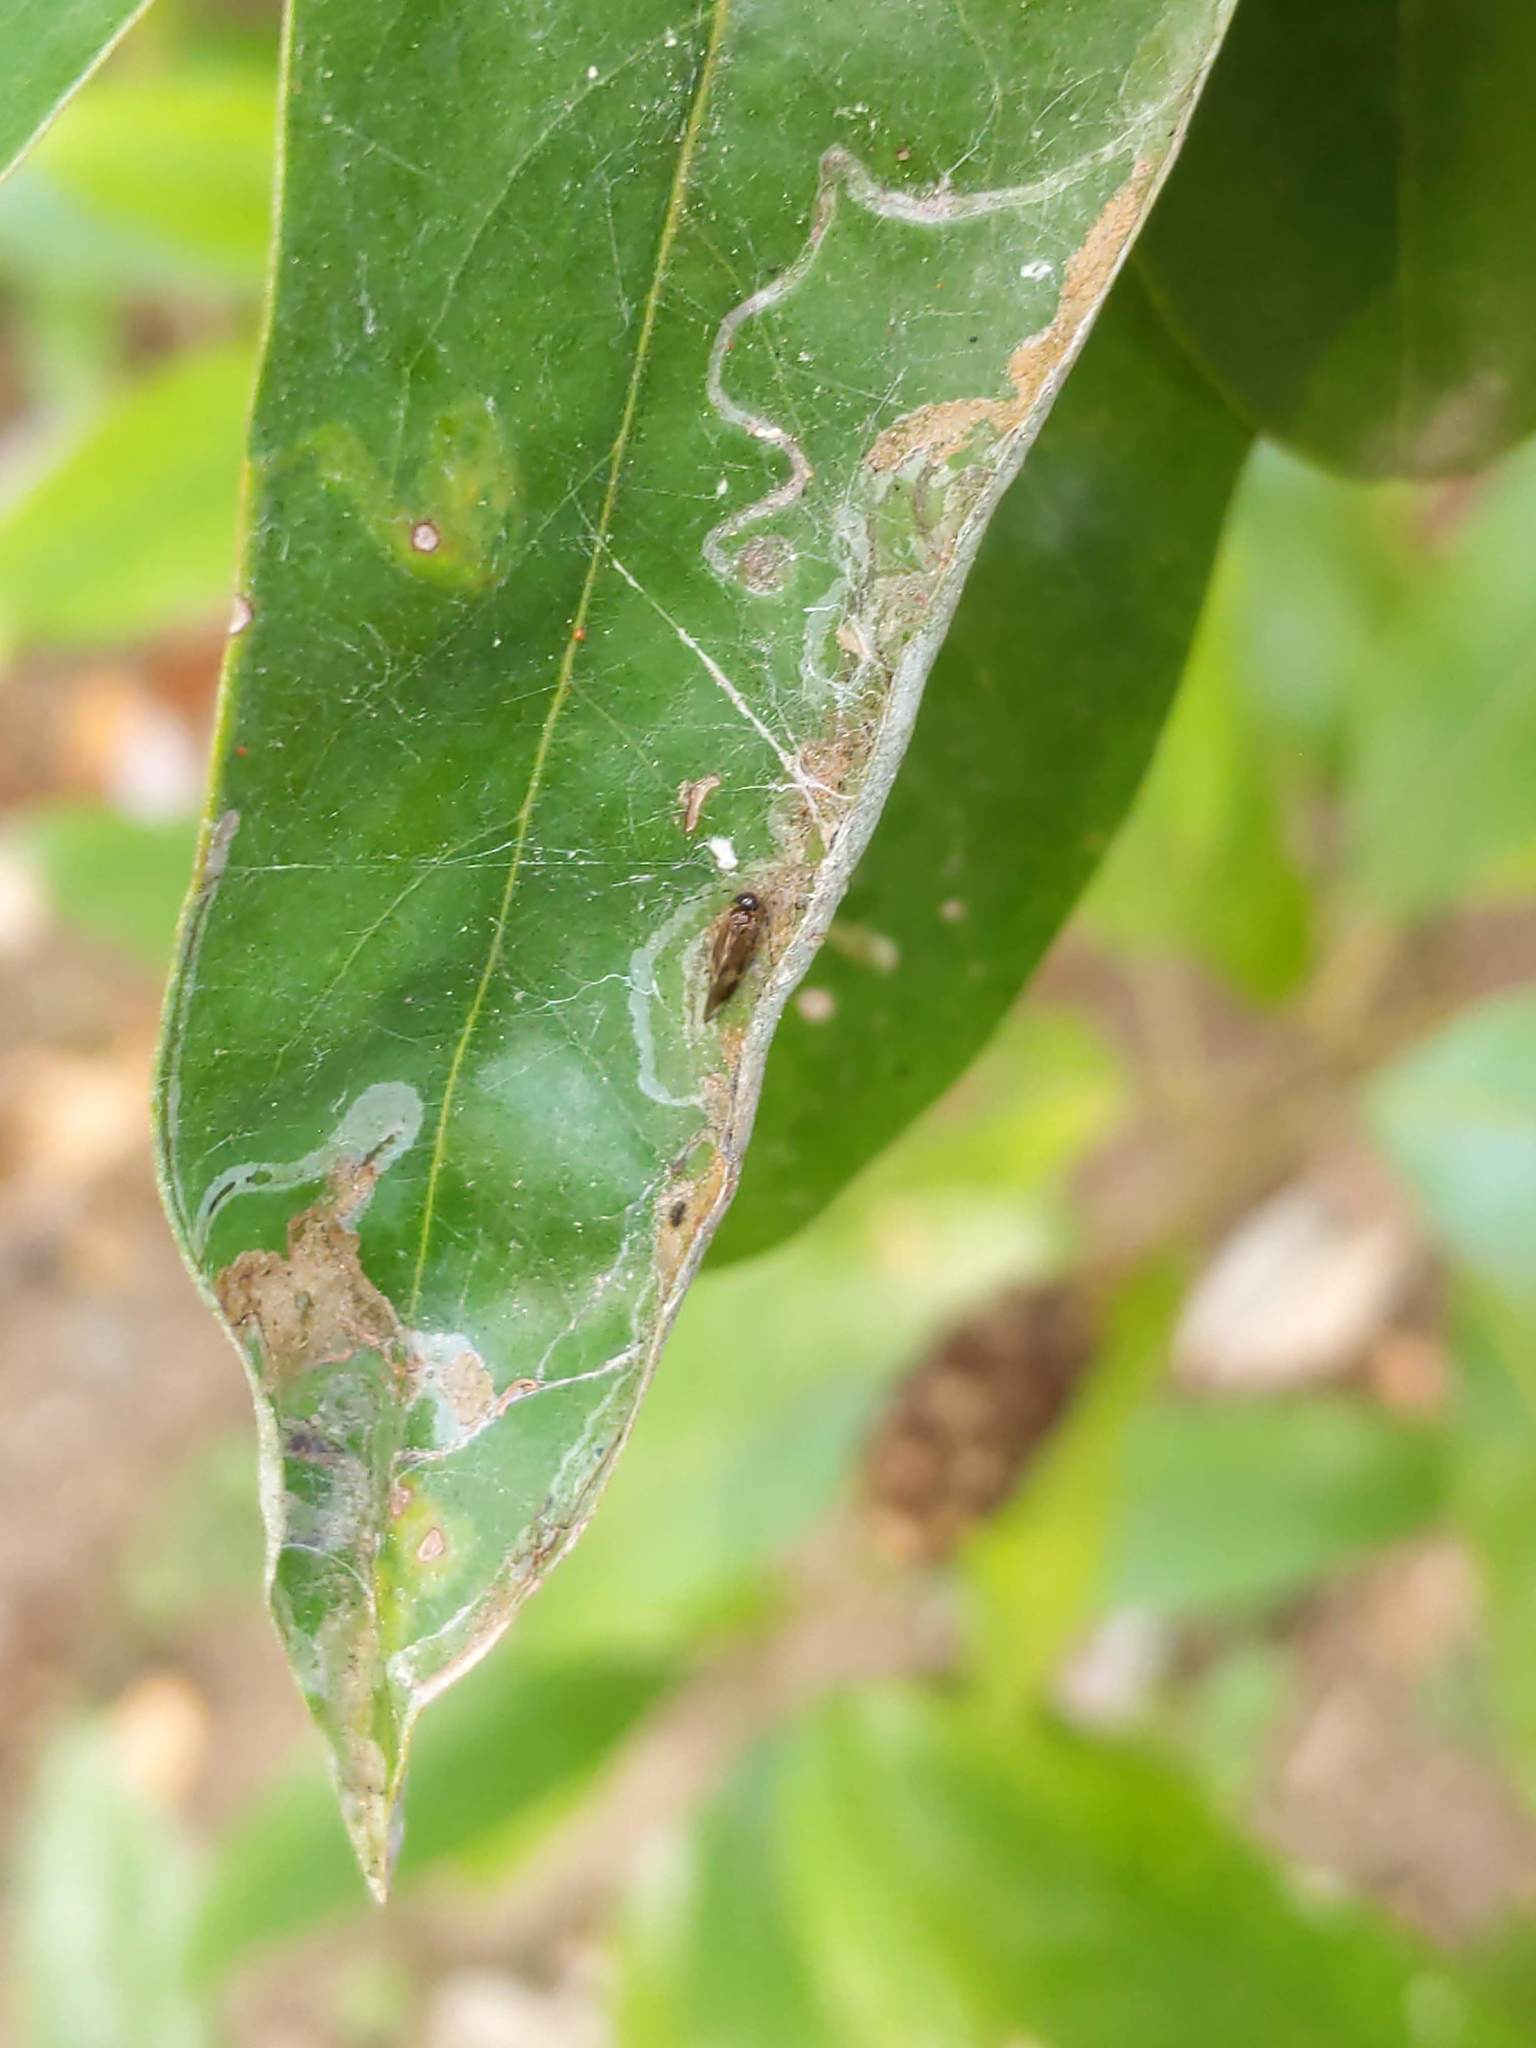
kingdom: Animalia
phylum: Arthropoda
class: Insecta
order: Lepidoptera
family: Gracillariidae
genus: Phyllocnistis
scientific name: Phyllocnistis liriodendronella
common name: Tulip tree leaf miner
